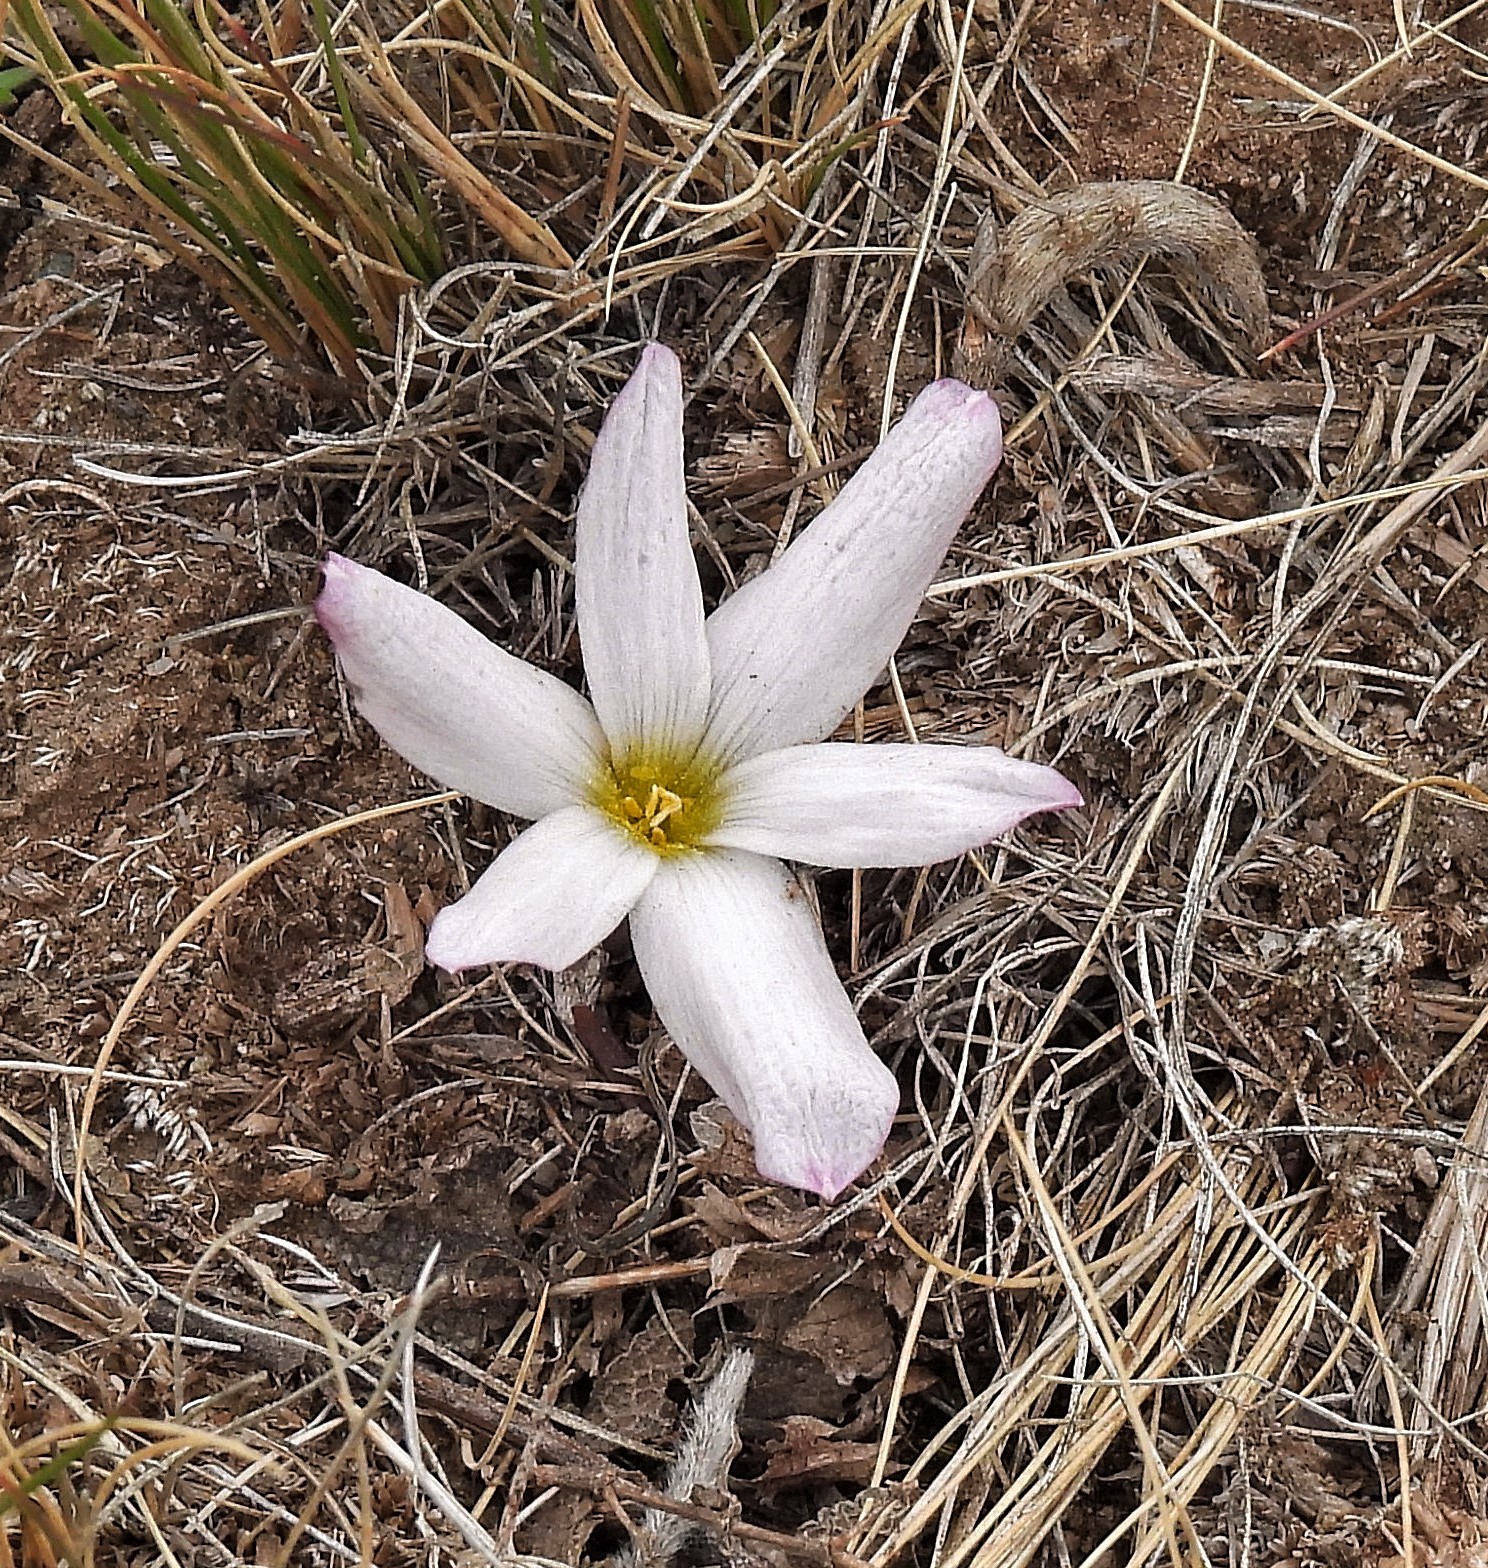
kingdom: Plantae
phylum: Tracheophyta
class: Liliopsida
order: Asparagales
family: Amaryllidaceae
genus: Zephyranthes
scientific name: Zephyranthes andina
